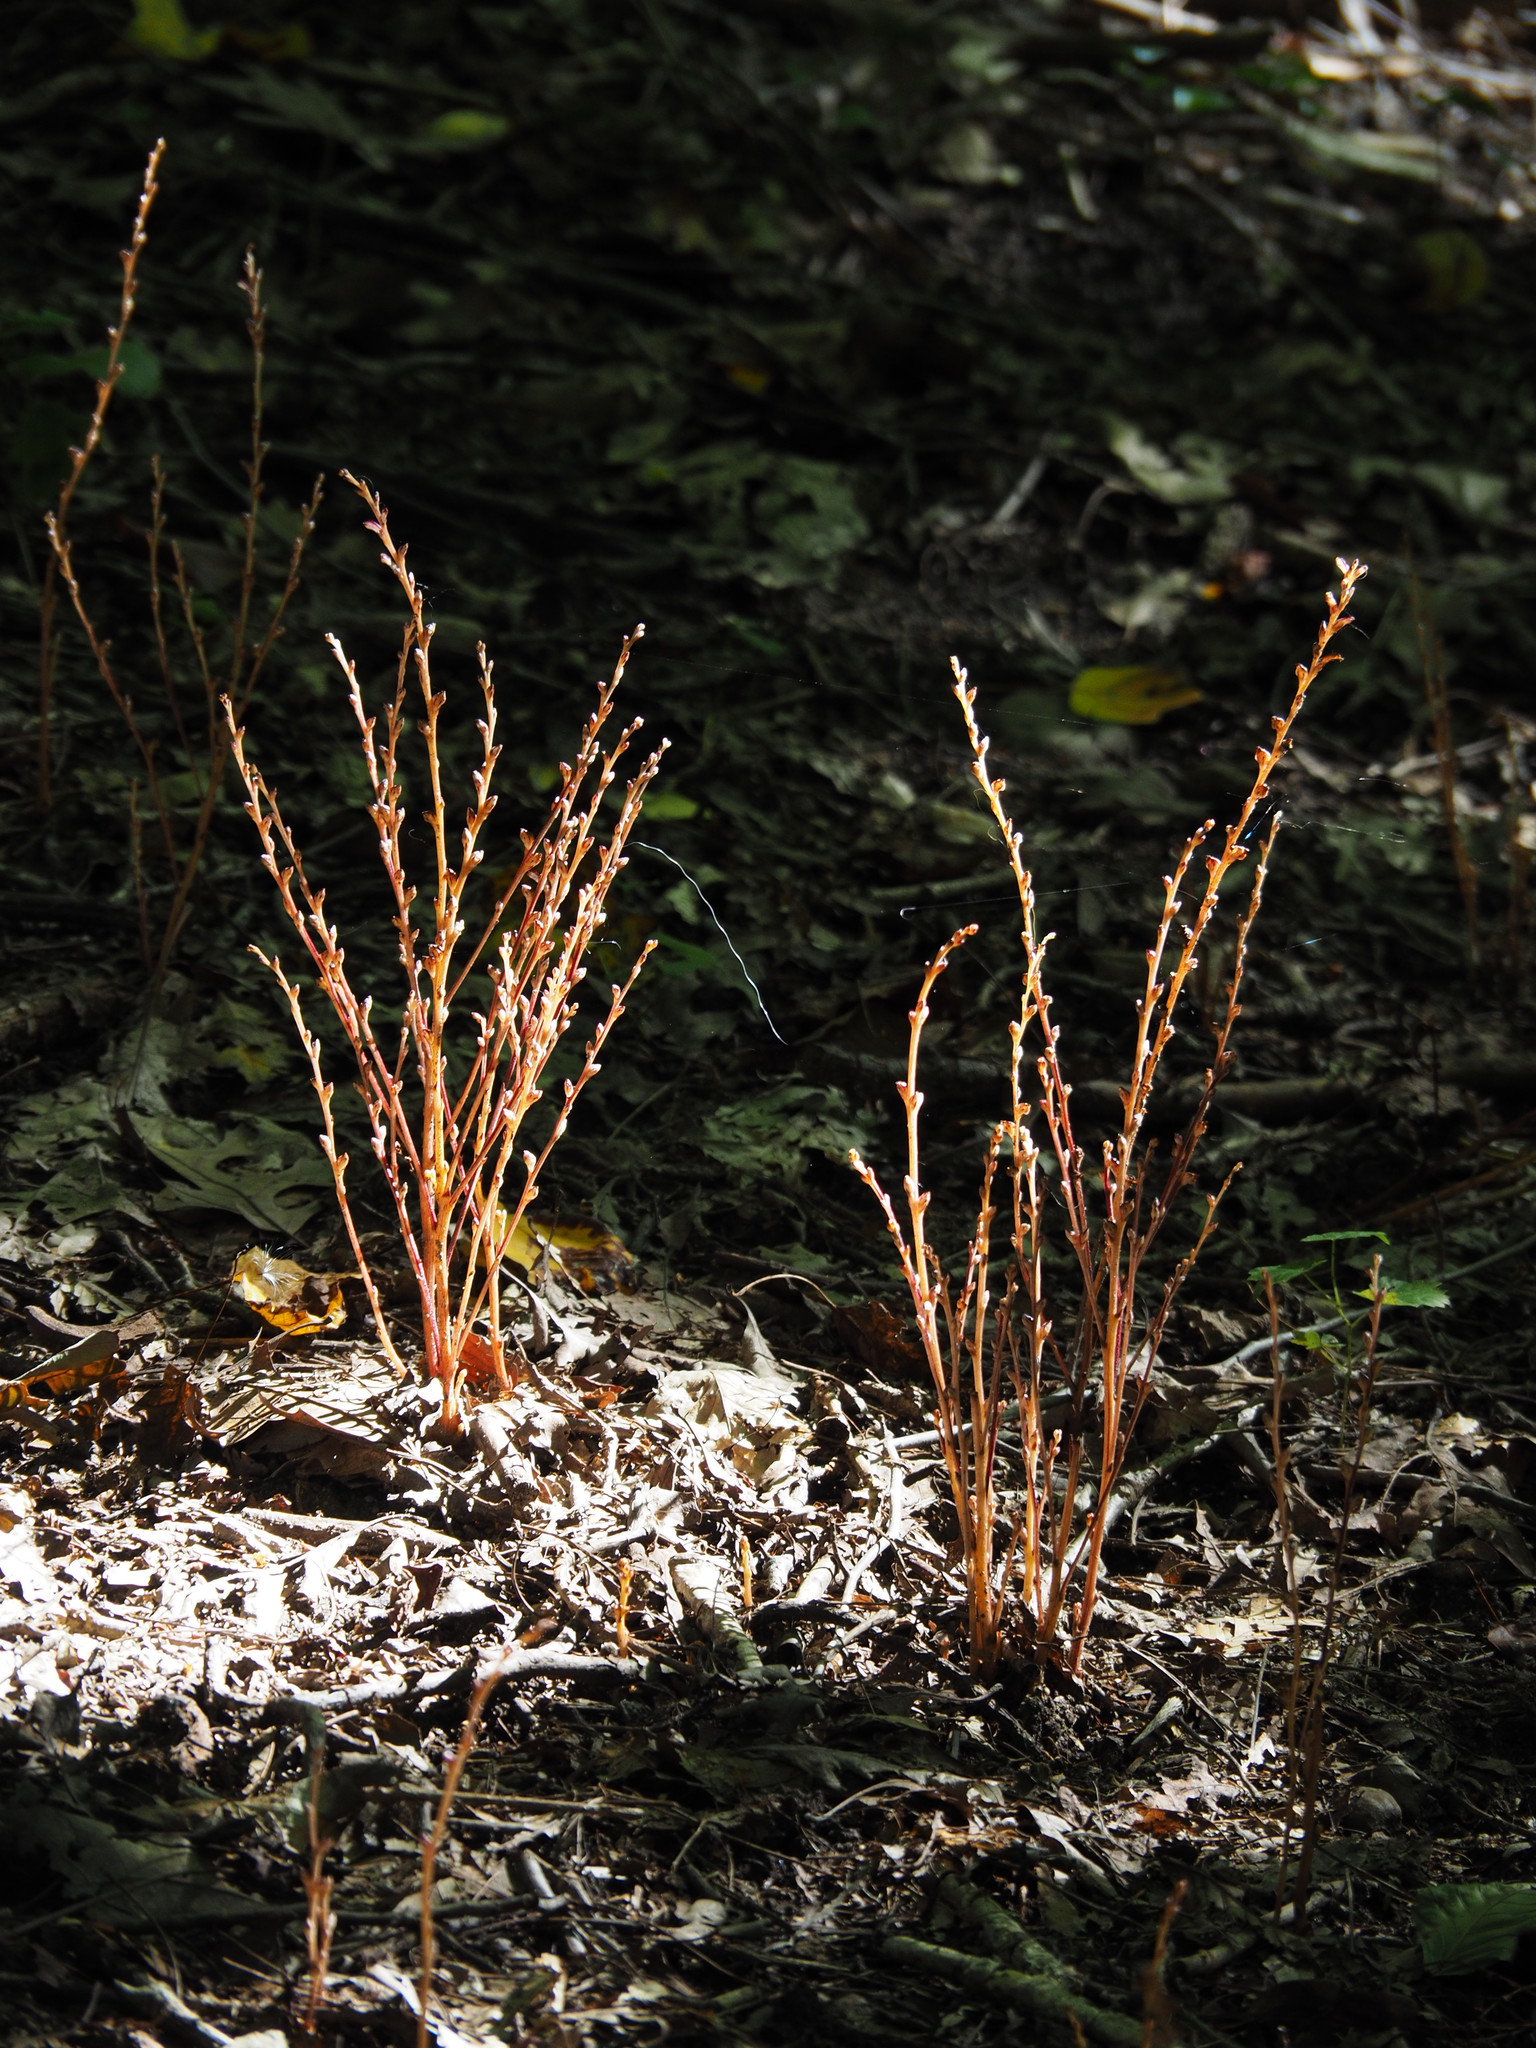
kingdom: Plantae
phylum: Tracheophyta
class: Magnoliopsida
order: Lamiales
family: Orobanchaceae
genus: Epifagus
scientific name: Epifagus virginiana
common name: Beechdrops
